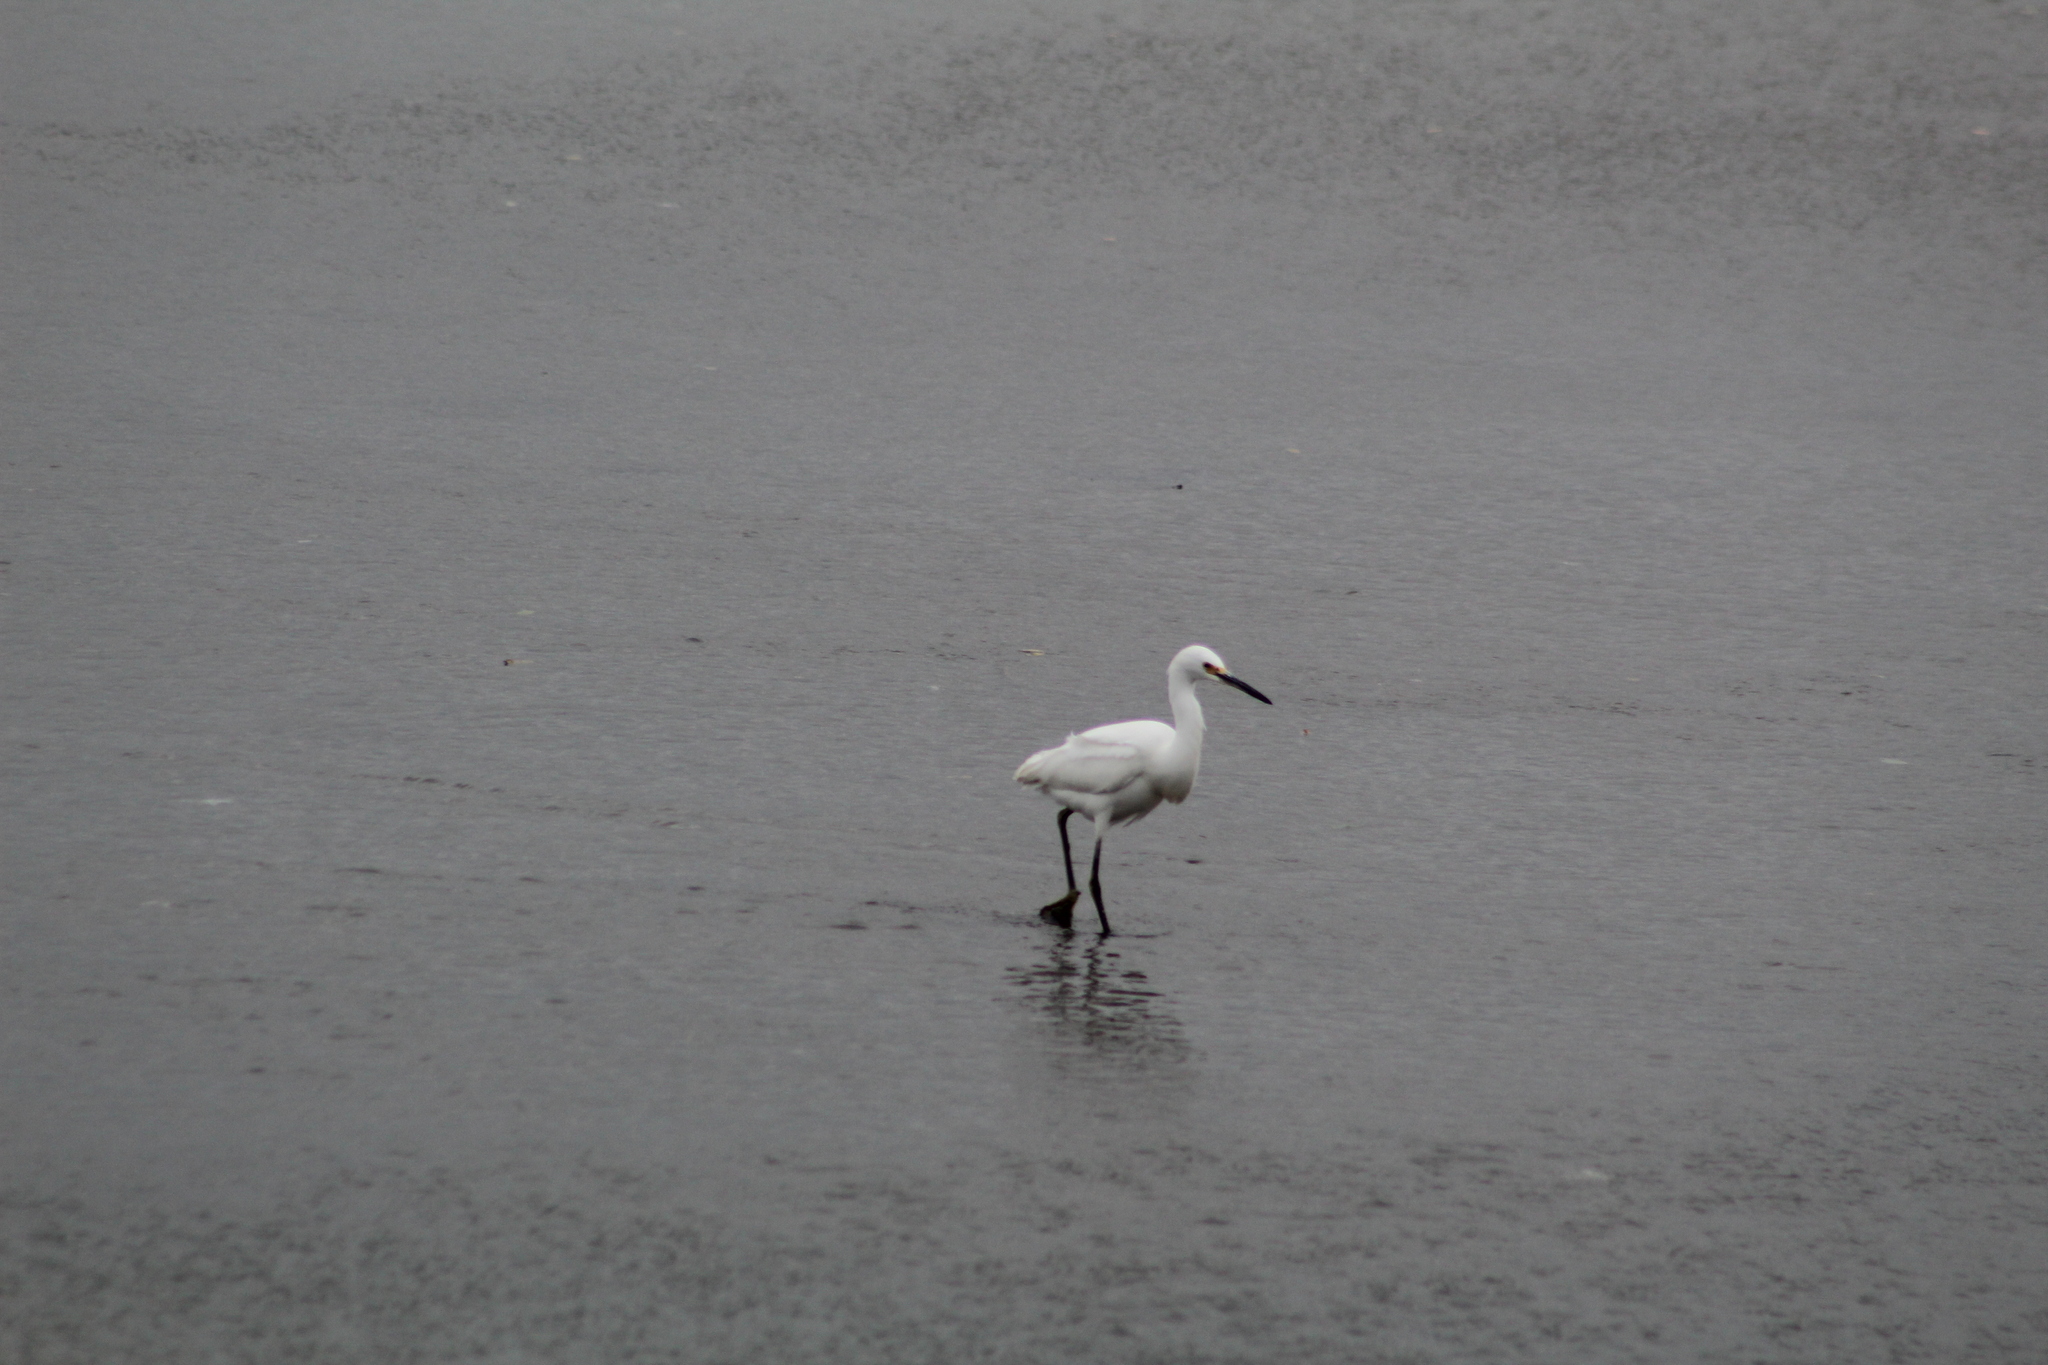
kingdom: Animalia
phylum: Chordata
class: Aves
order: Pelecaniformes
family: Ardeidae
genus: Egretta
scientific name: Egretta thula
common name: Snowy egret
